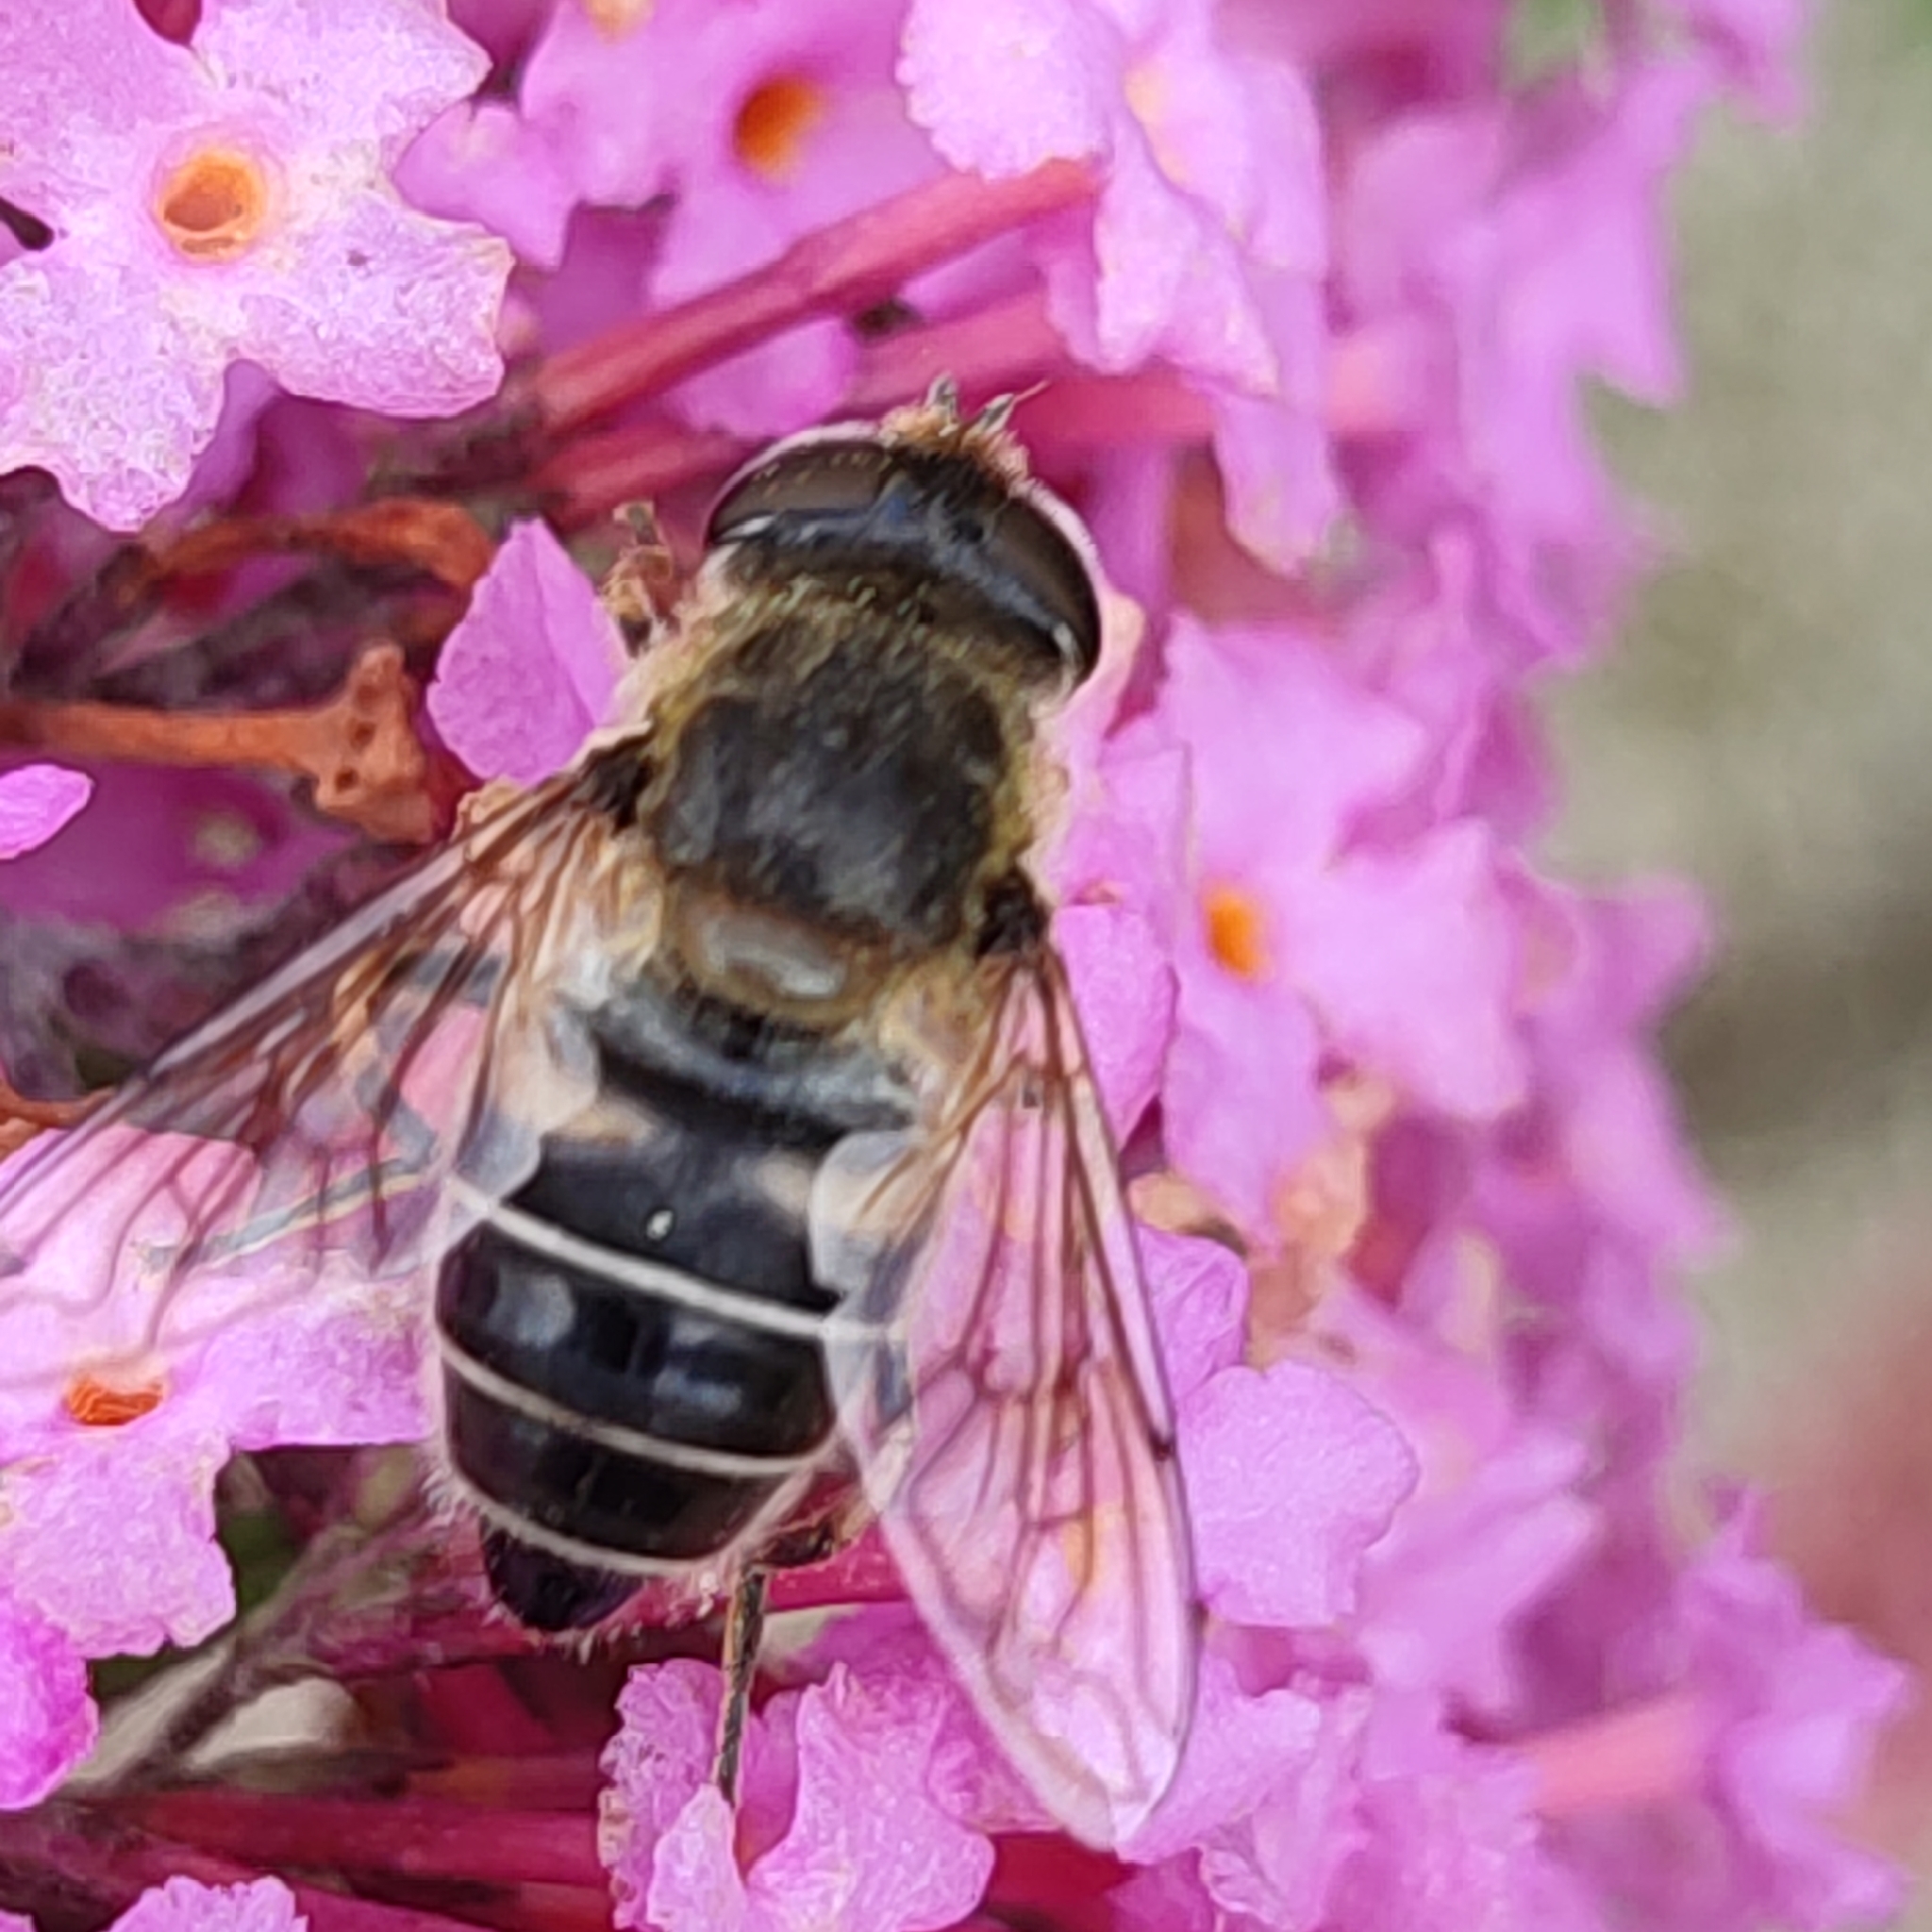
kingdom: Animalia
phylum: Arthropoda
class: Insecta
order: Diptera
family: Syrphidae
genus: Eristalis
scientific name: Eristalis nemorum
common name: Orange-spined drone fly
